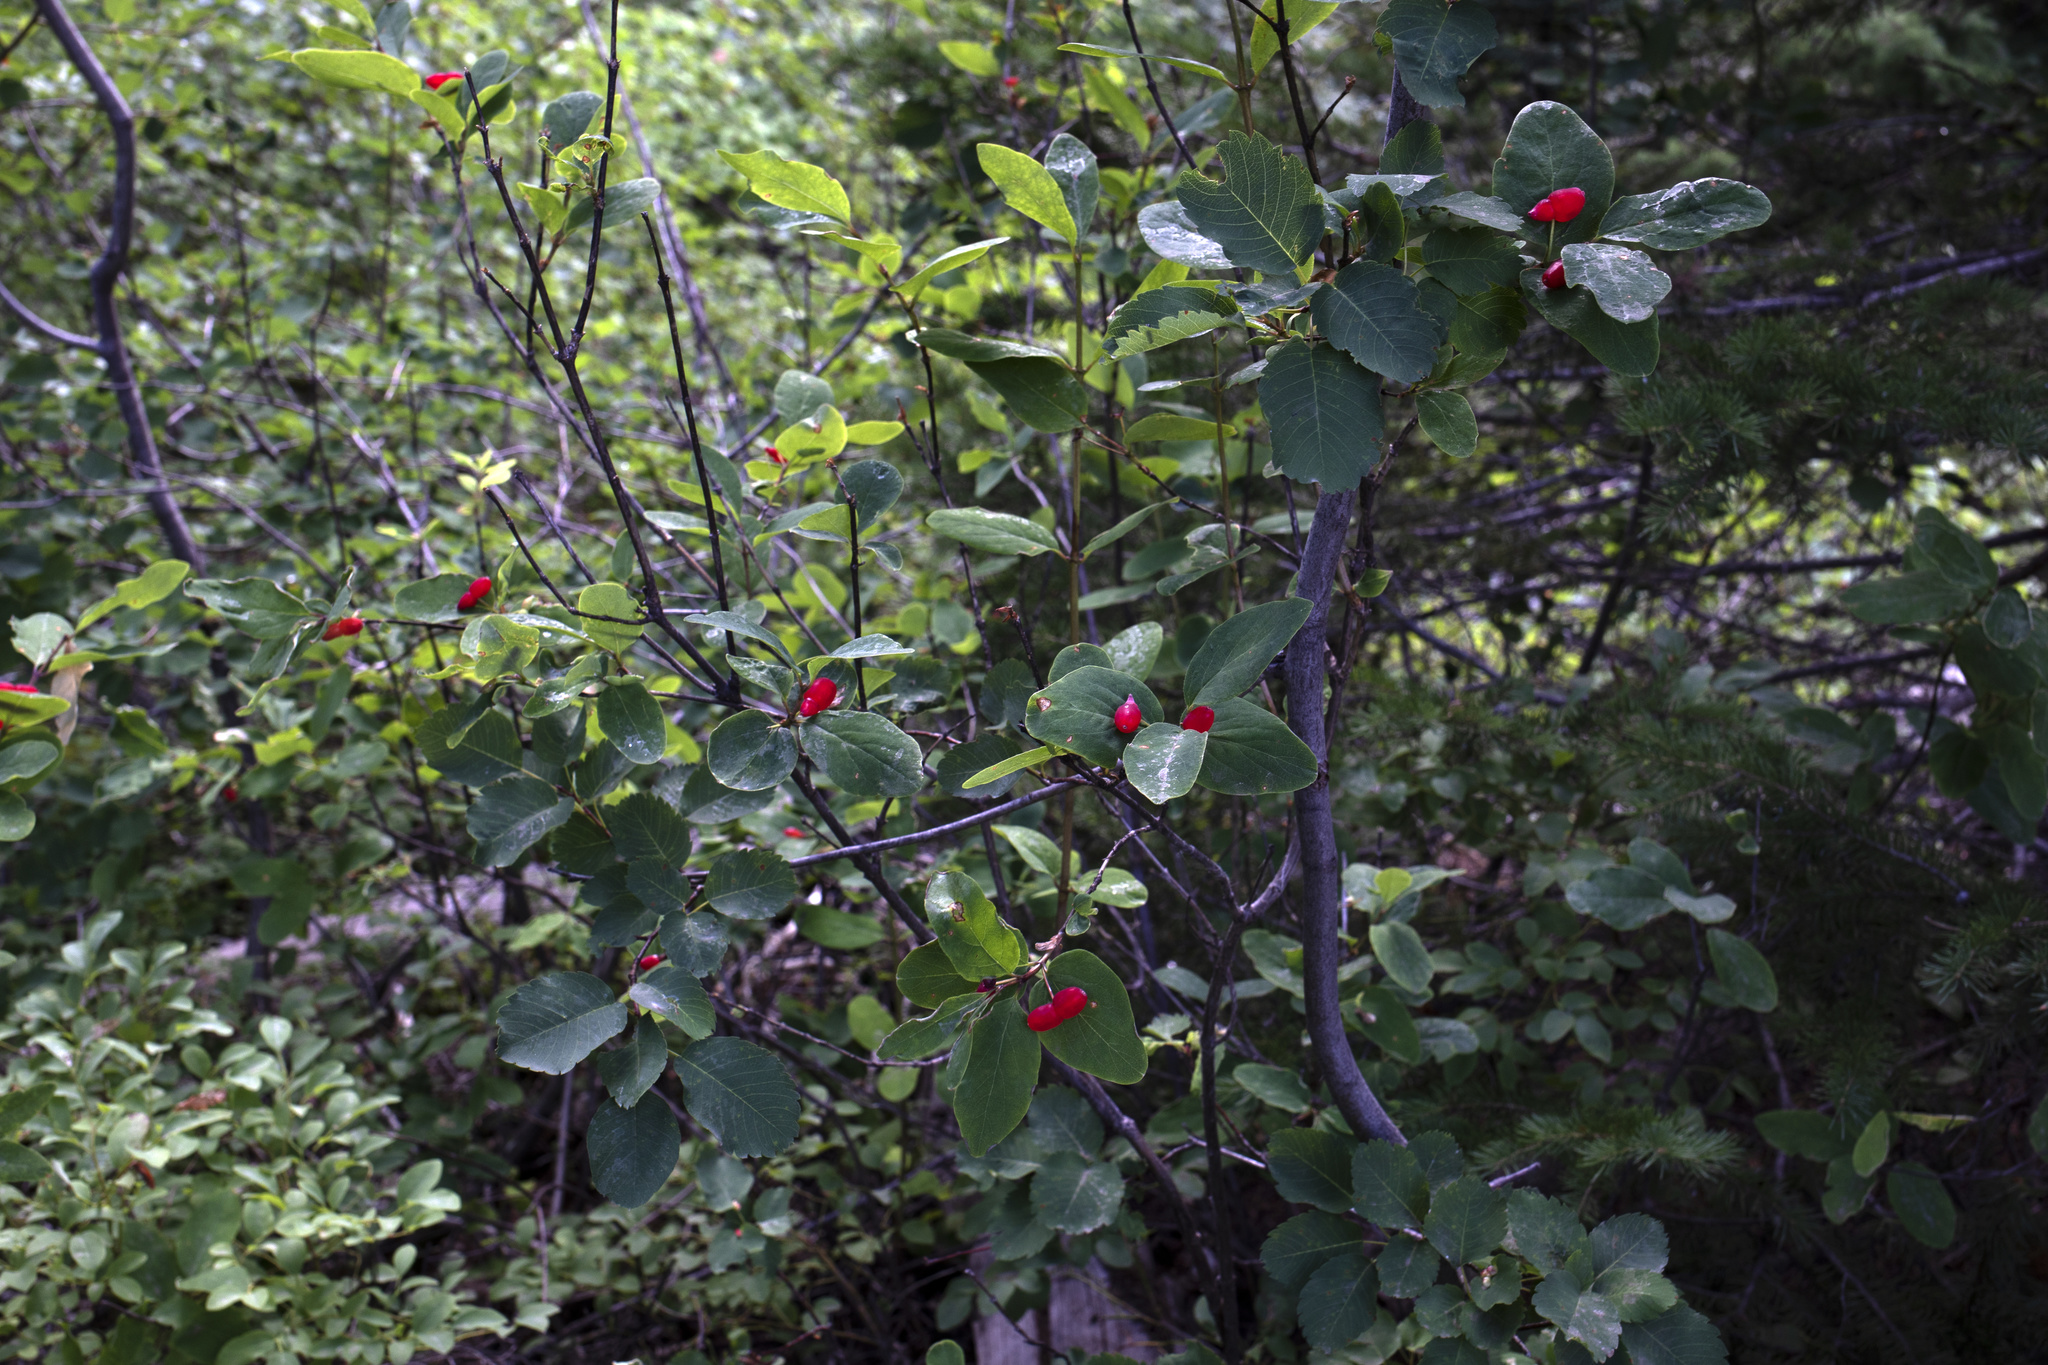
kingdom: Plantae
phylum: Tracheophyta
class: Magnoliopsida
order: Dipsacales
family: Caprifoliaceae
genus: Lonicera
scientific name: Lonicera utahensis
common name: Utah honeysuckle
